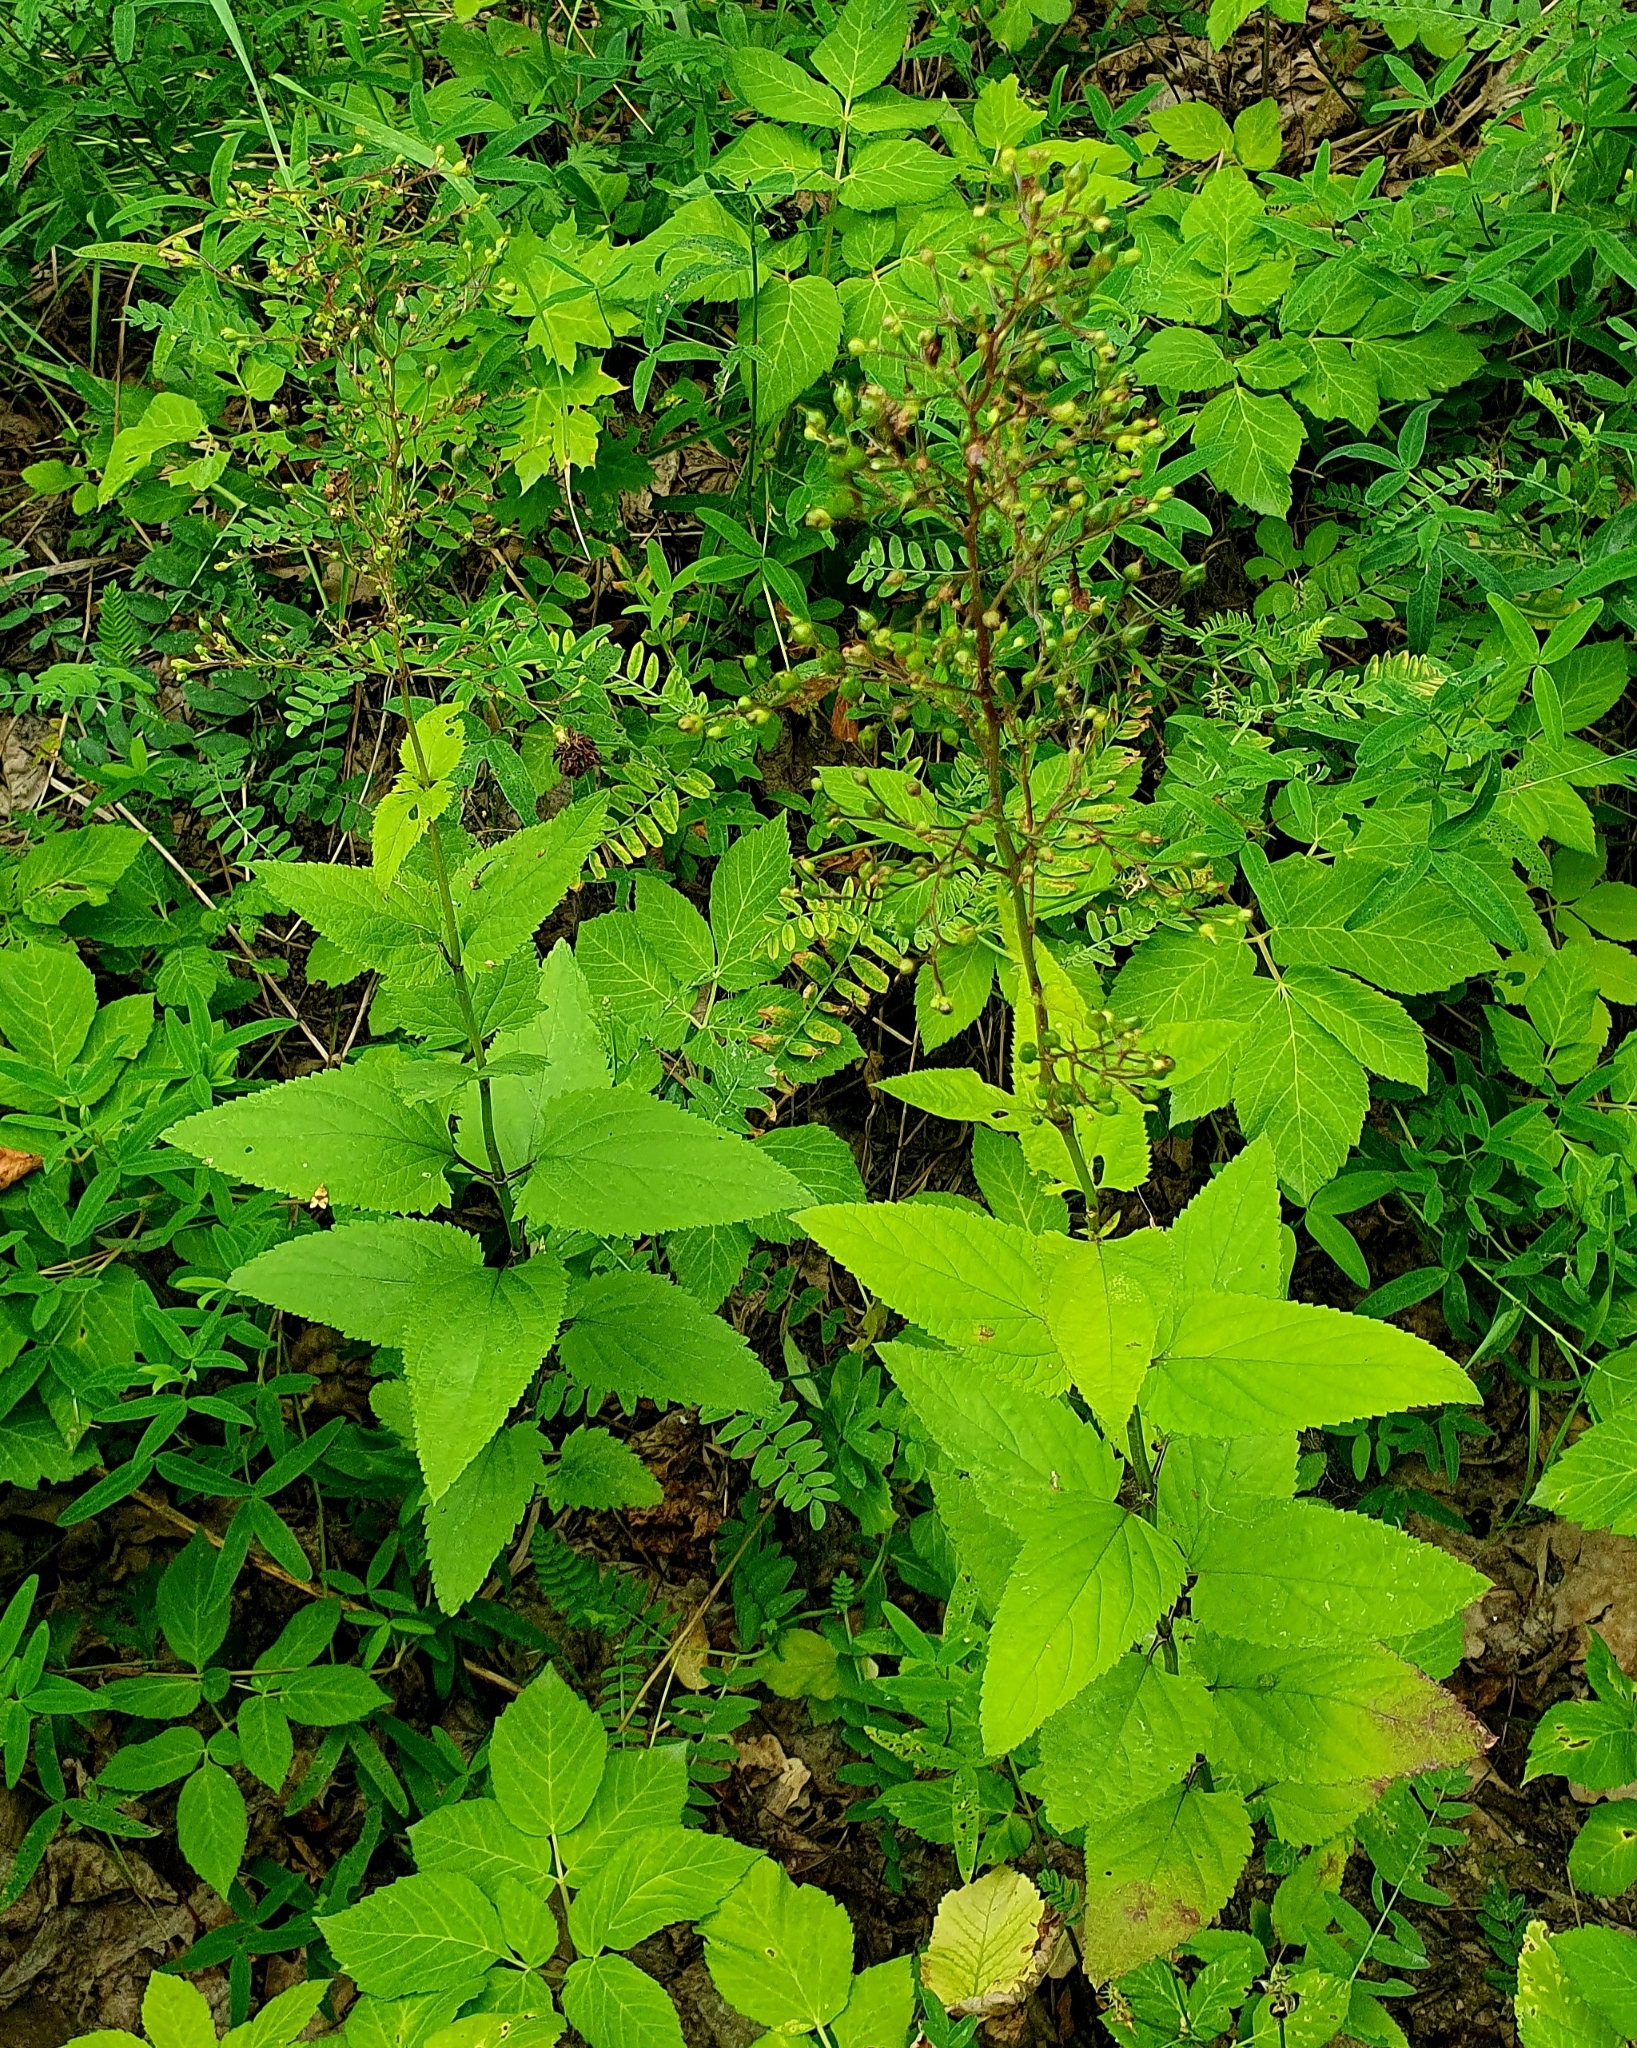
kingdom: Plantae
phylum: Tracheophyta
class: Magnoliopsida
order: Lamiales
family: Scrophulariaceae
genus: Scrophularia
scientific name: Scrophularia nodosa
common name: Common figwort
